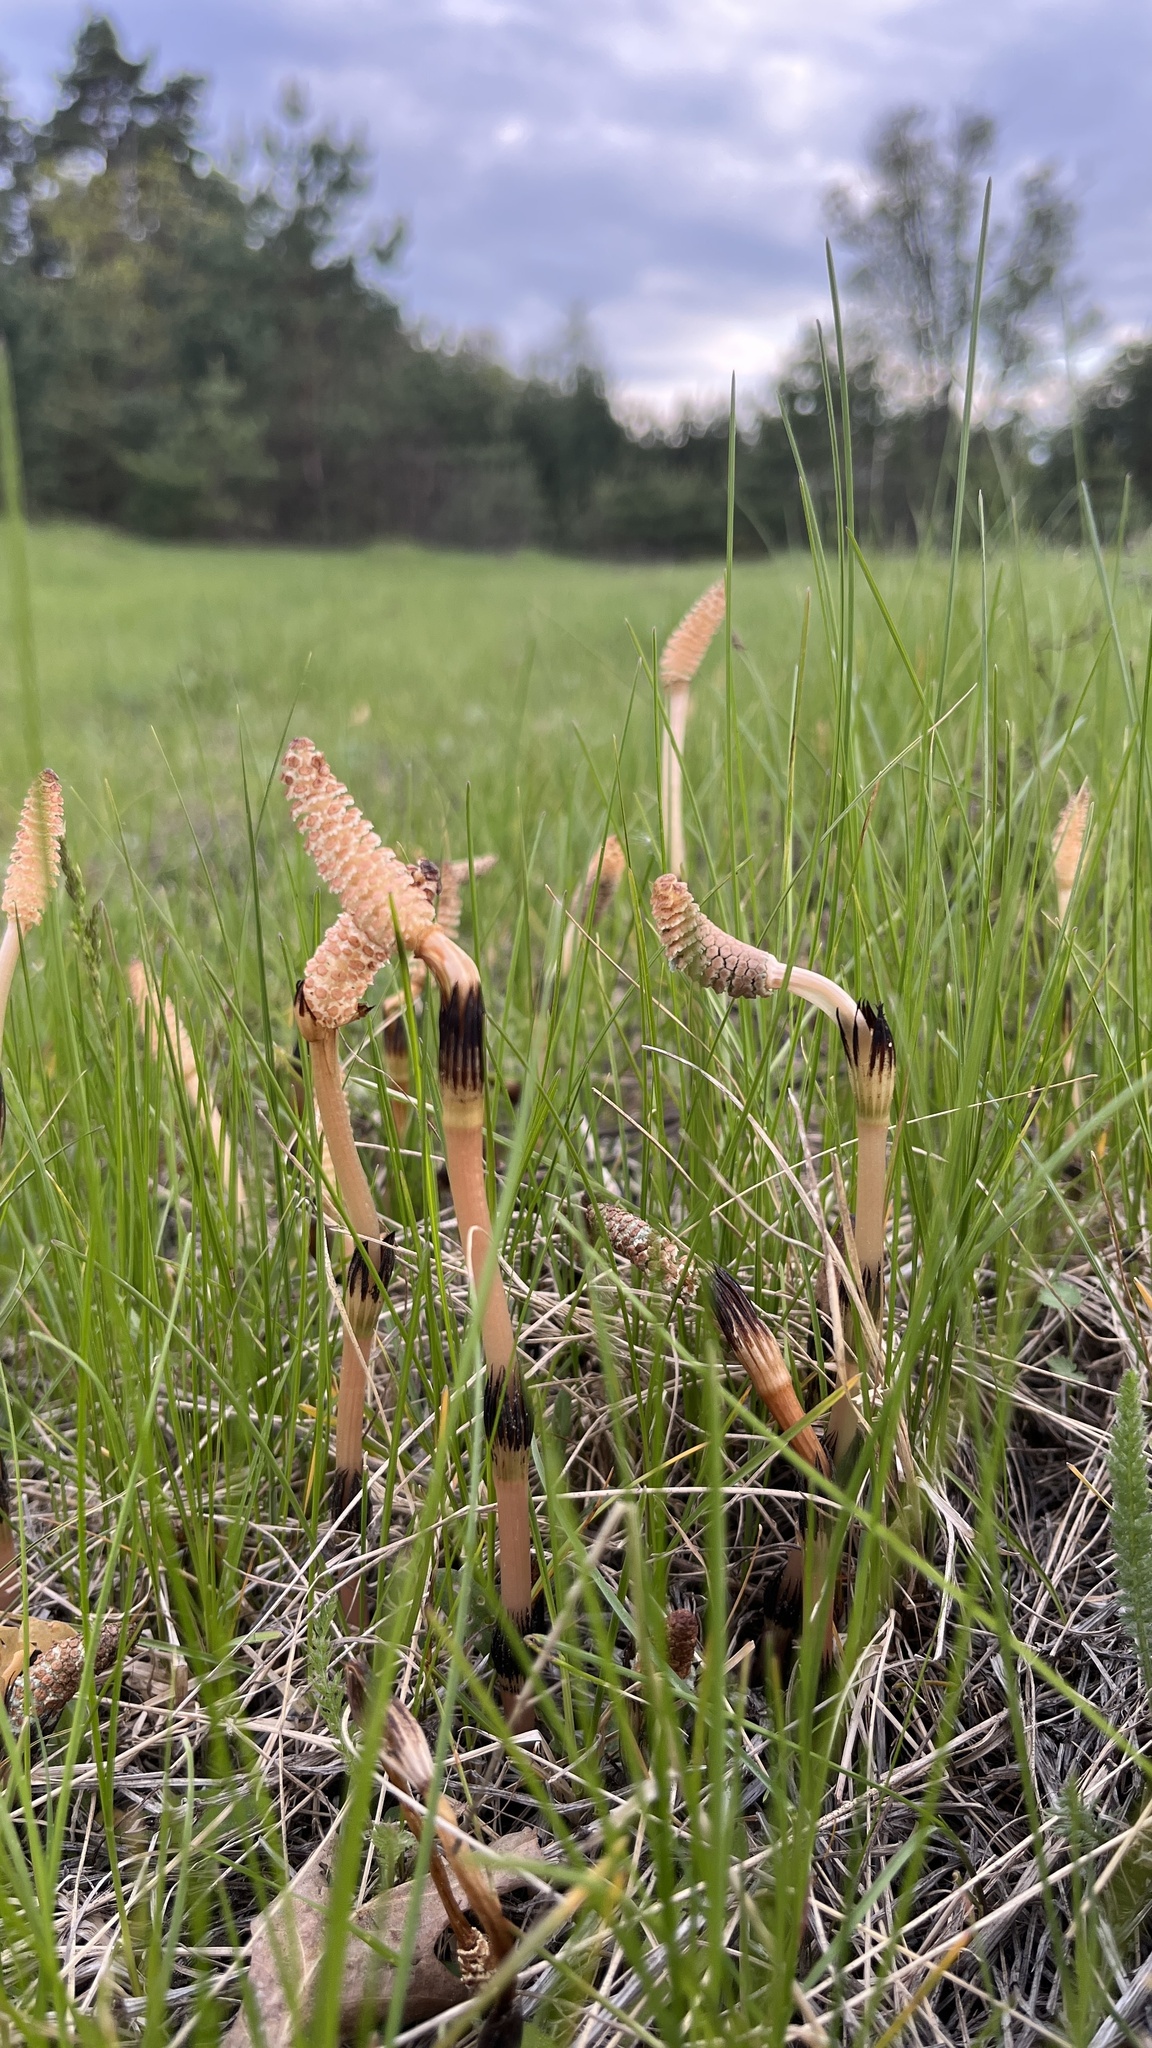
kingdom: Plantae
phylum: Tracheophyta
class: Polypodiopsida
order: Equisetales
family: Equisetaceae
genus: Equisetum
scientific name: Equisetum arvense
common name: Field horsetail
